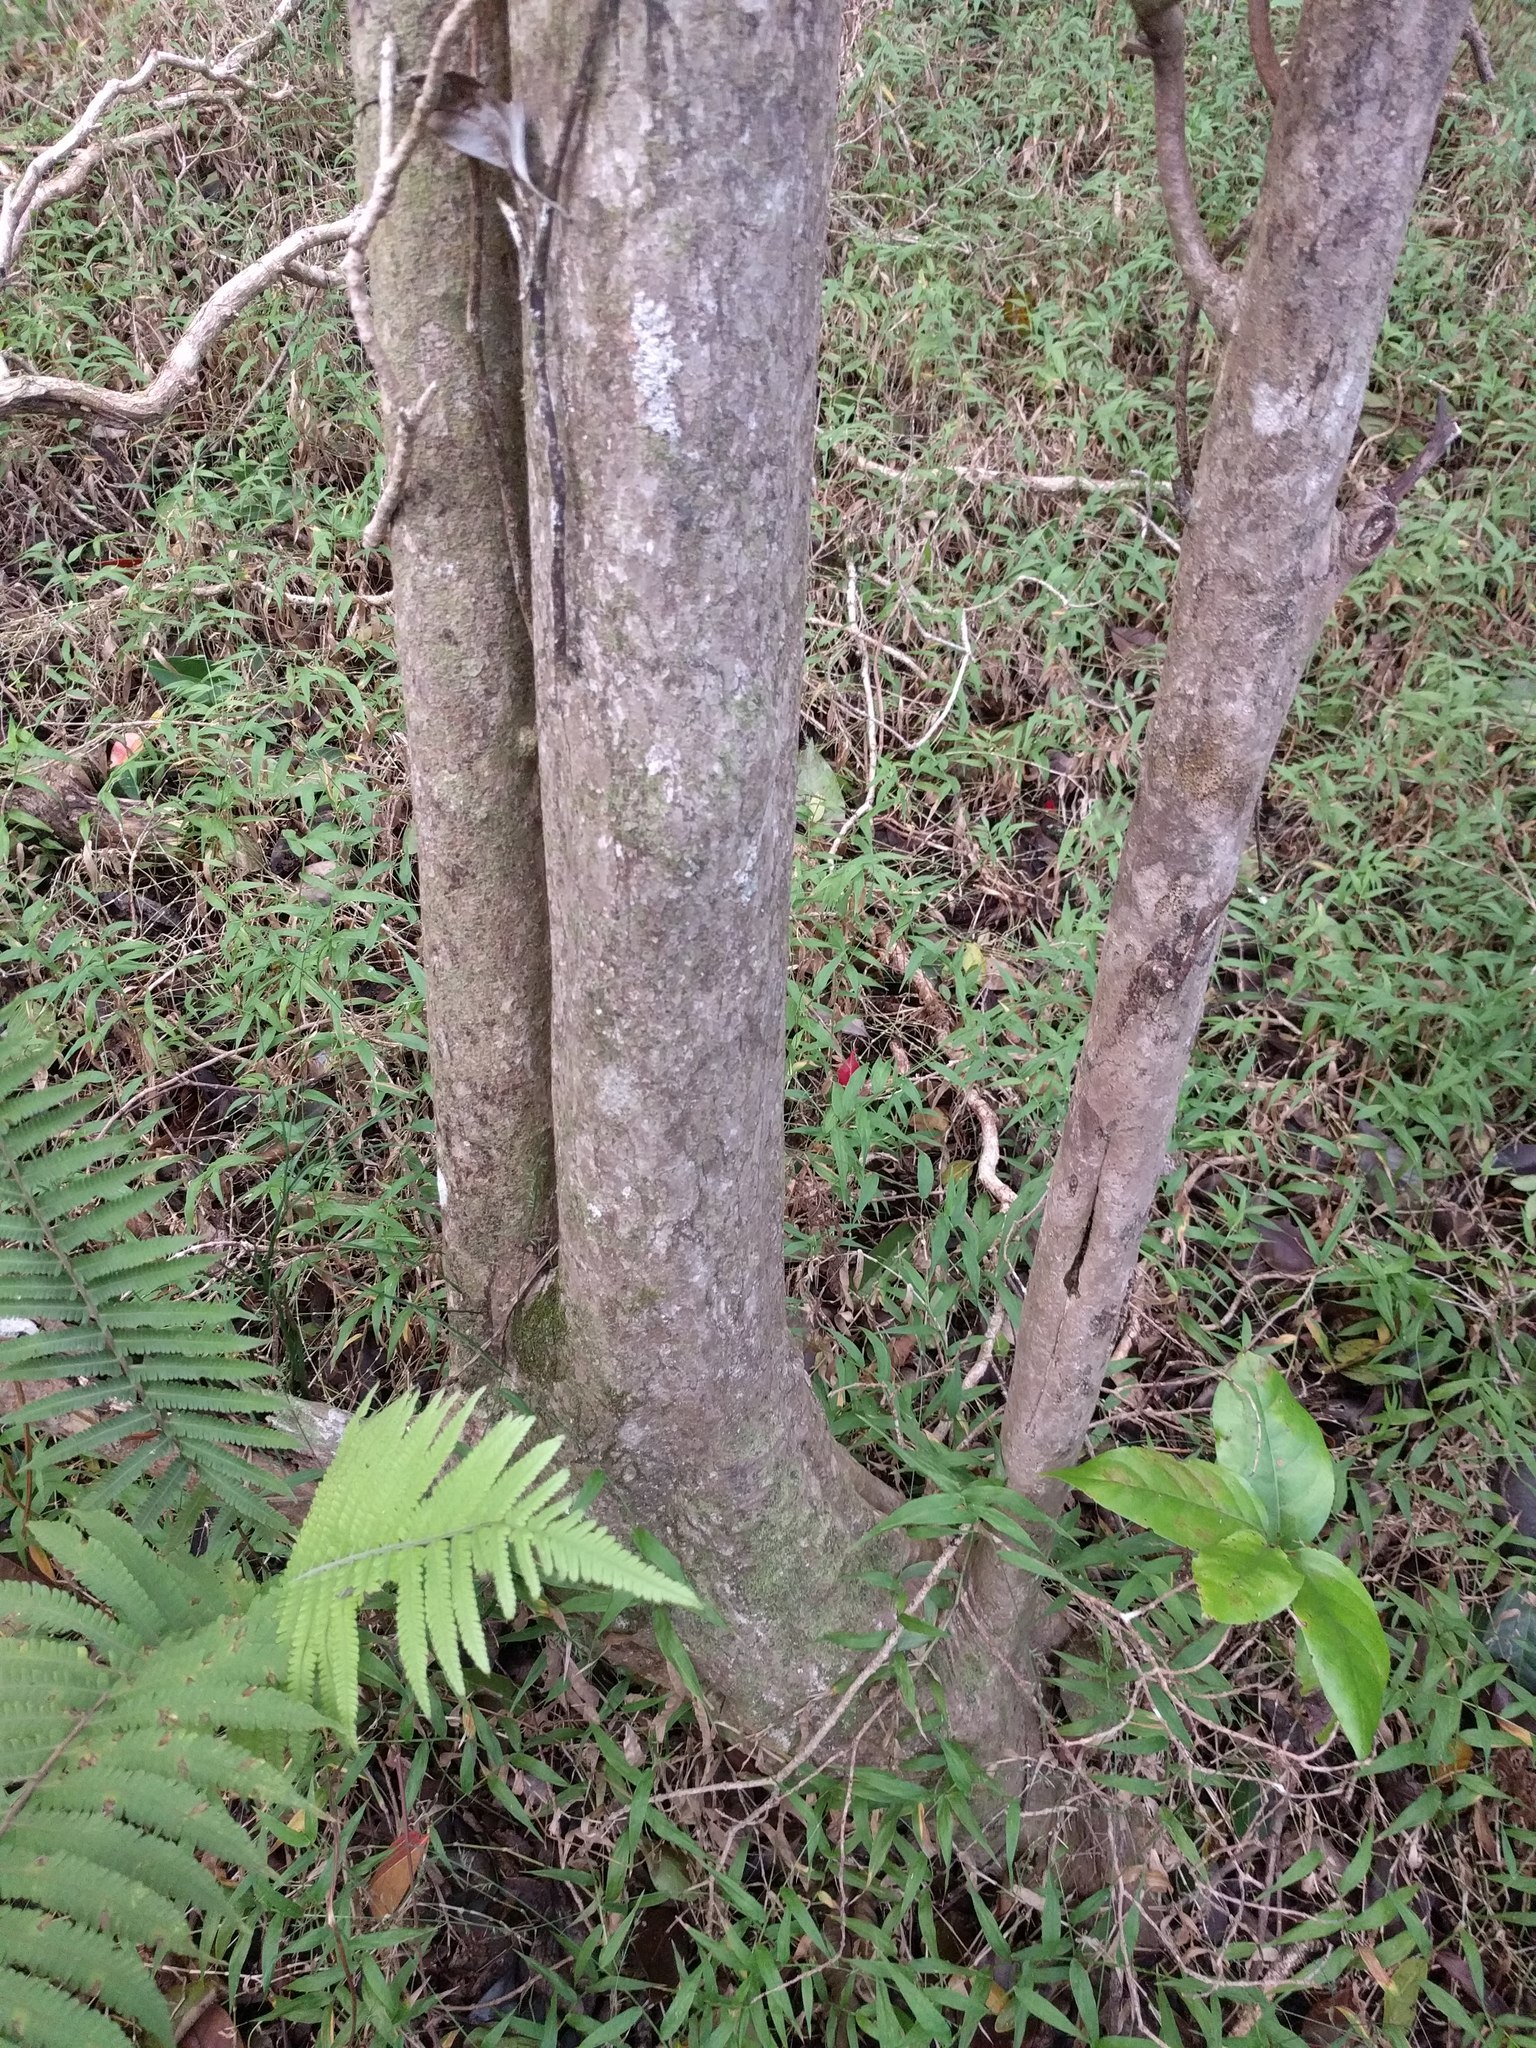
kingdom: Plantae
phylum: Tracheophyta
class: Magnoliopsida
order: Malpighiales
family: Phyllanthaceae
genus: Antidesma
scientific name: Antidesma platyphyllum
